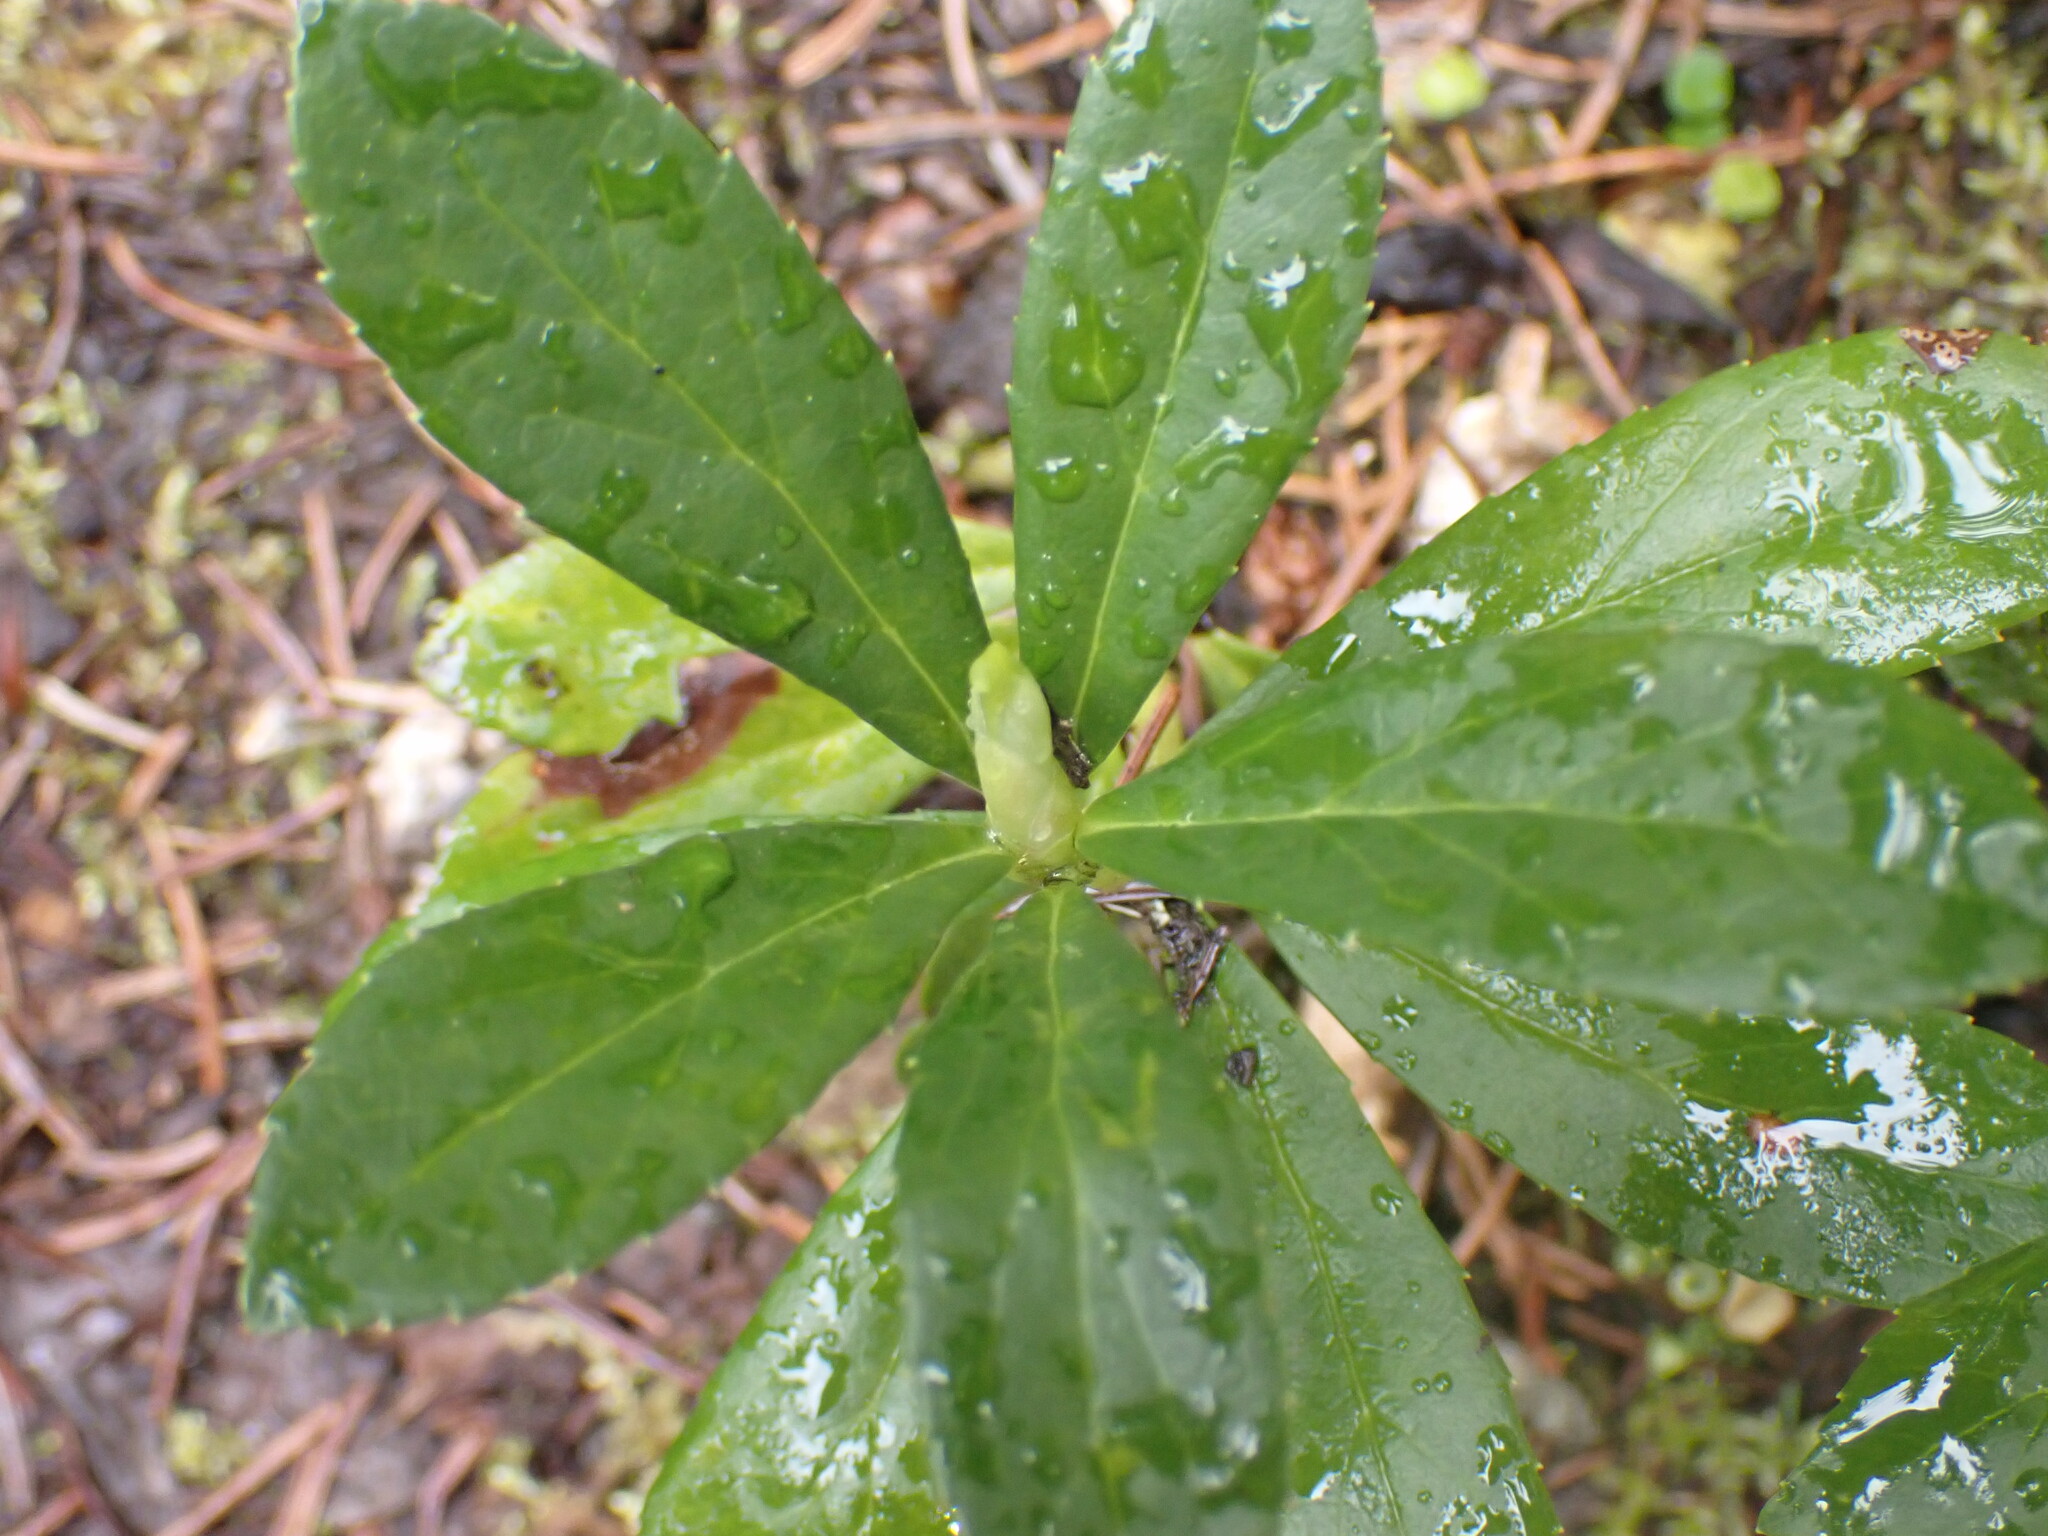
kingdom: Plantae
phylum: Tracheophyta
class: Magnoliopsida
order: Ericales
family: Ericaceae
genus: Chimaphila
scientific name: Chimaphila umbellata
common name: Pipsissewa
